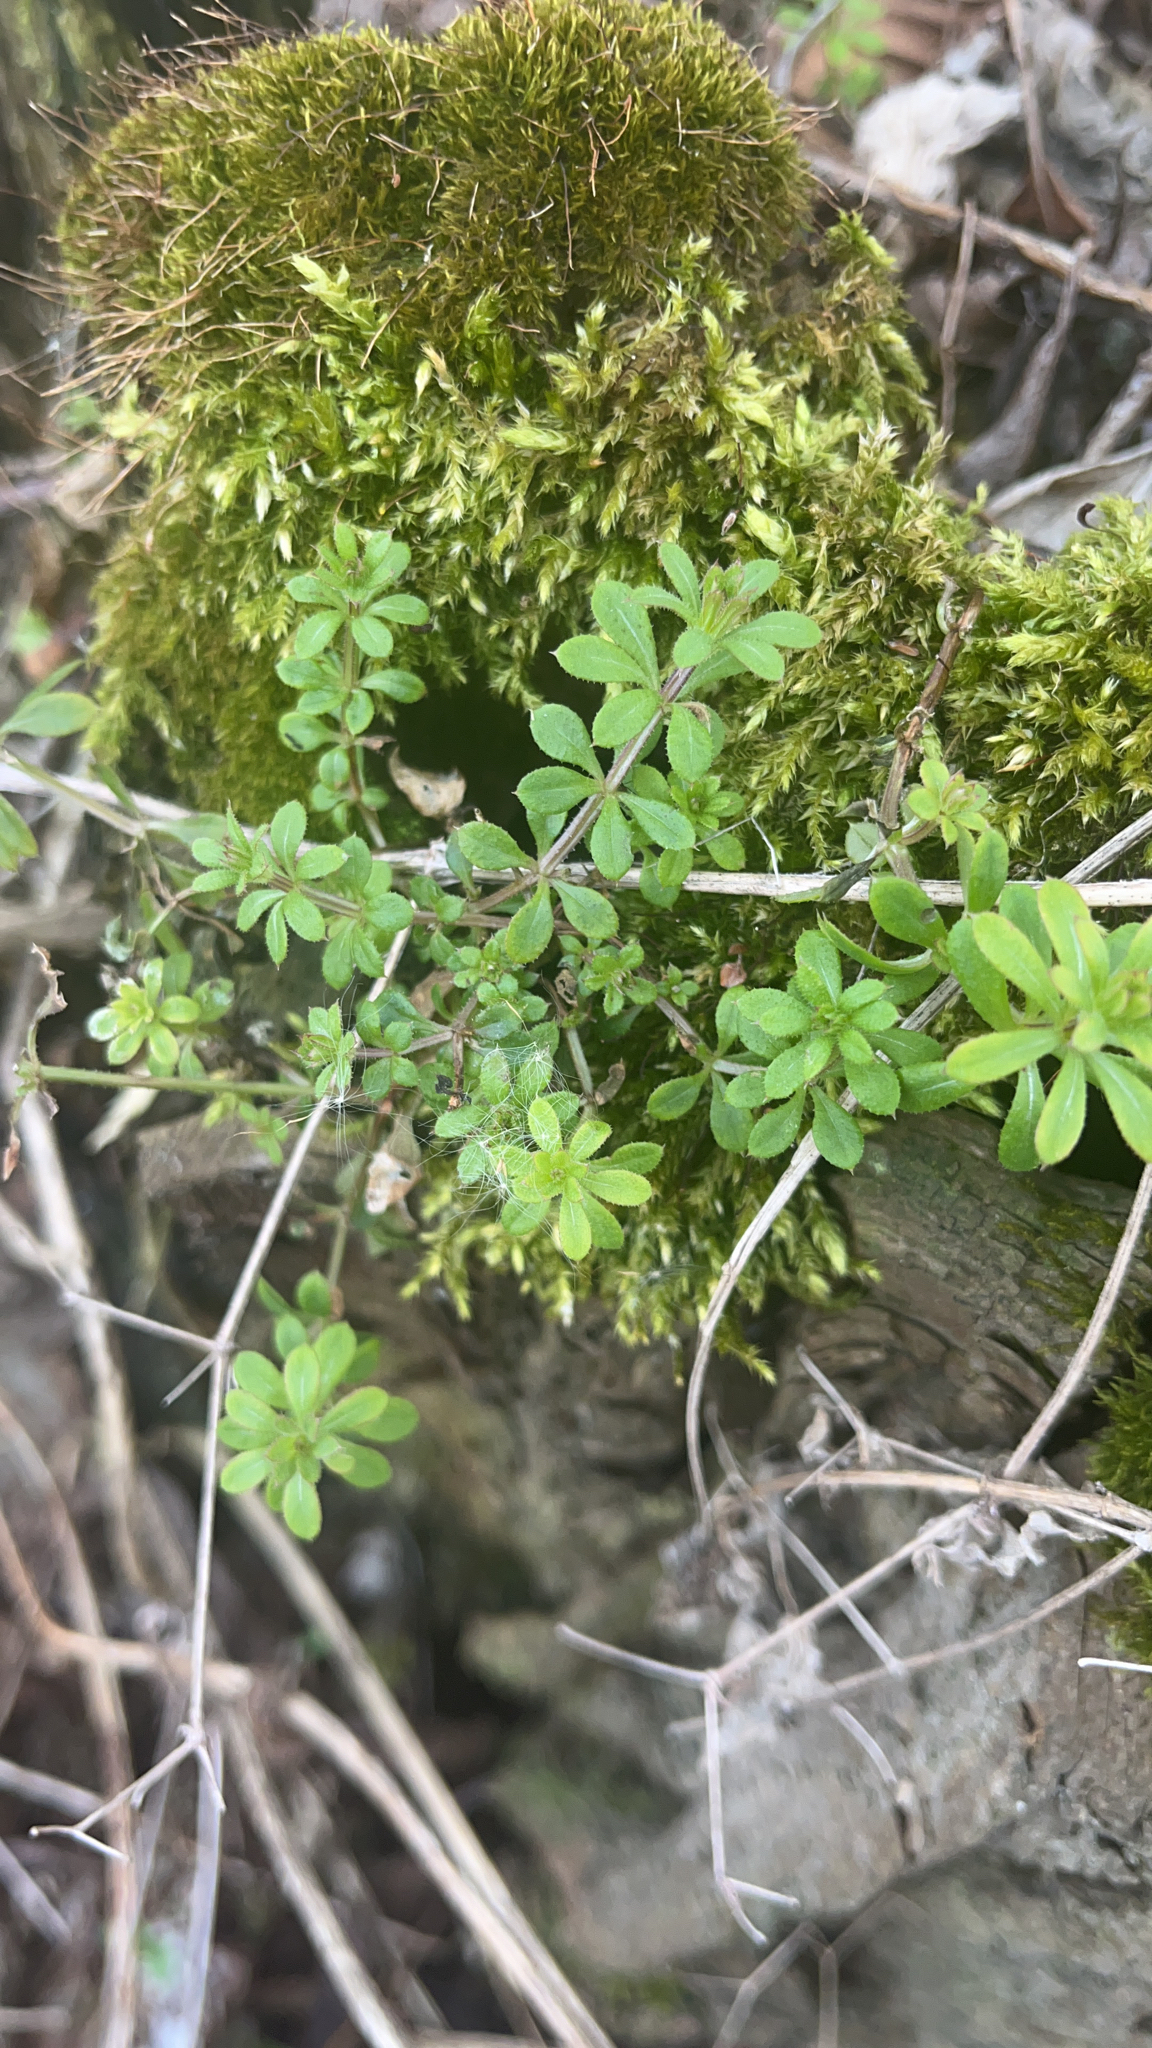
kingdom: Plantae
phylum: Tracheophyta
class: Magnoliopsida
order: Gentianales
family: Rubiaceae
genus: Galium
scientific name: Galium aparine
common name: Cleavers
